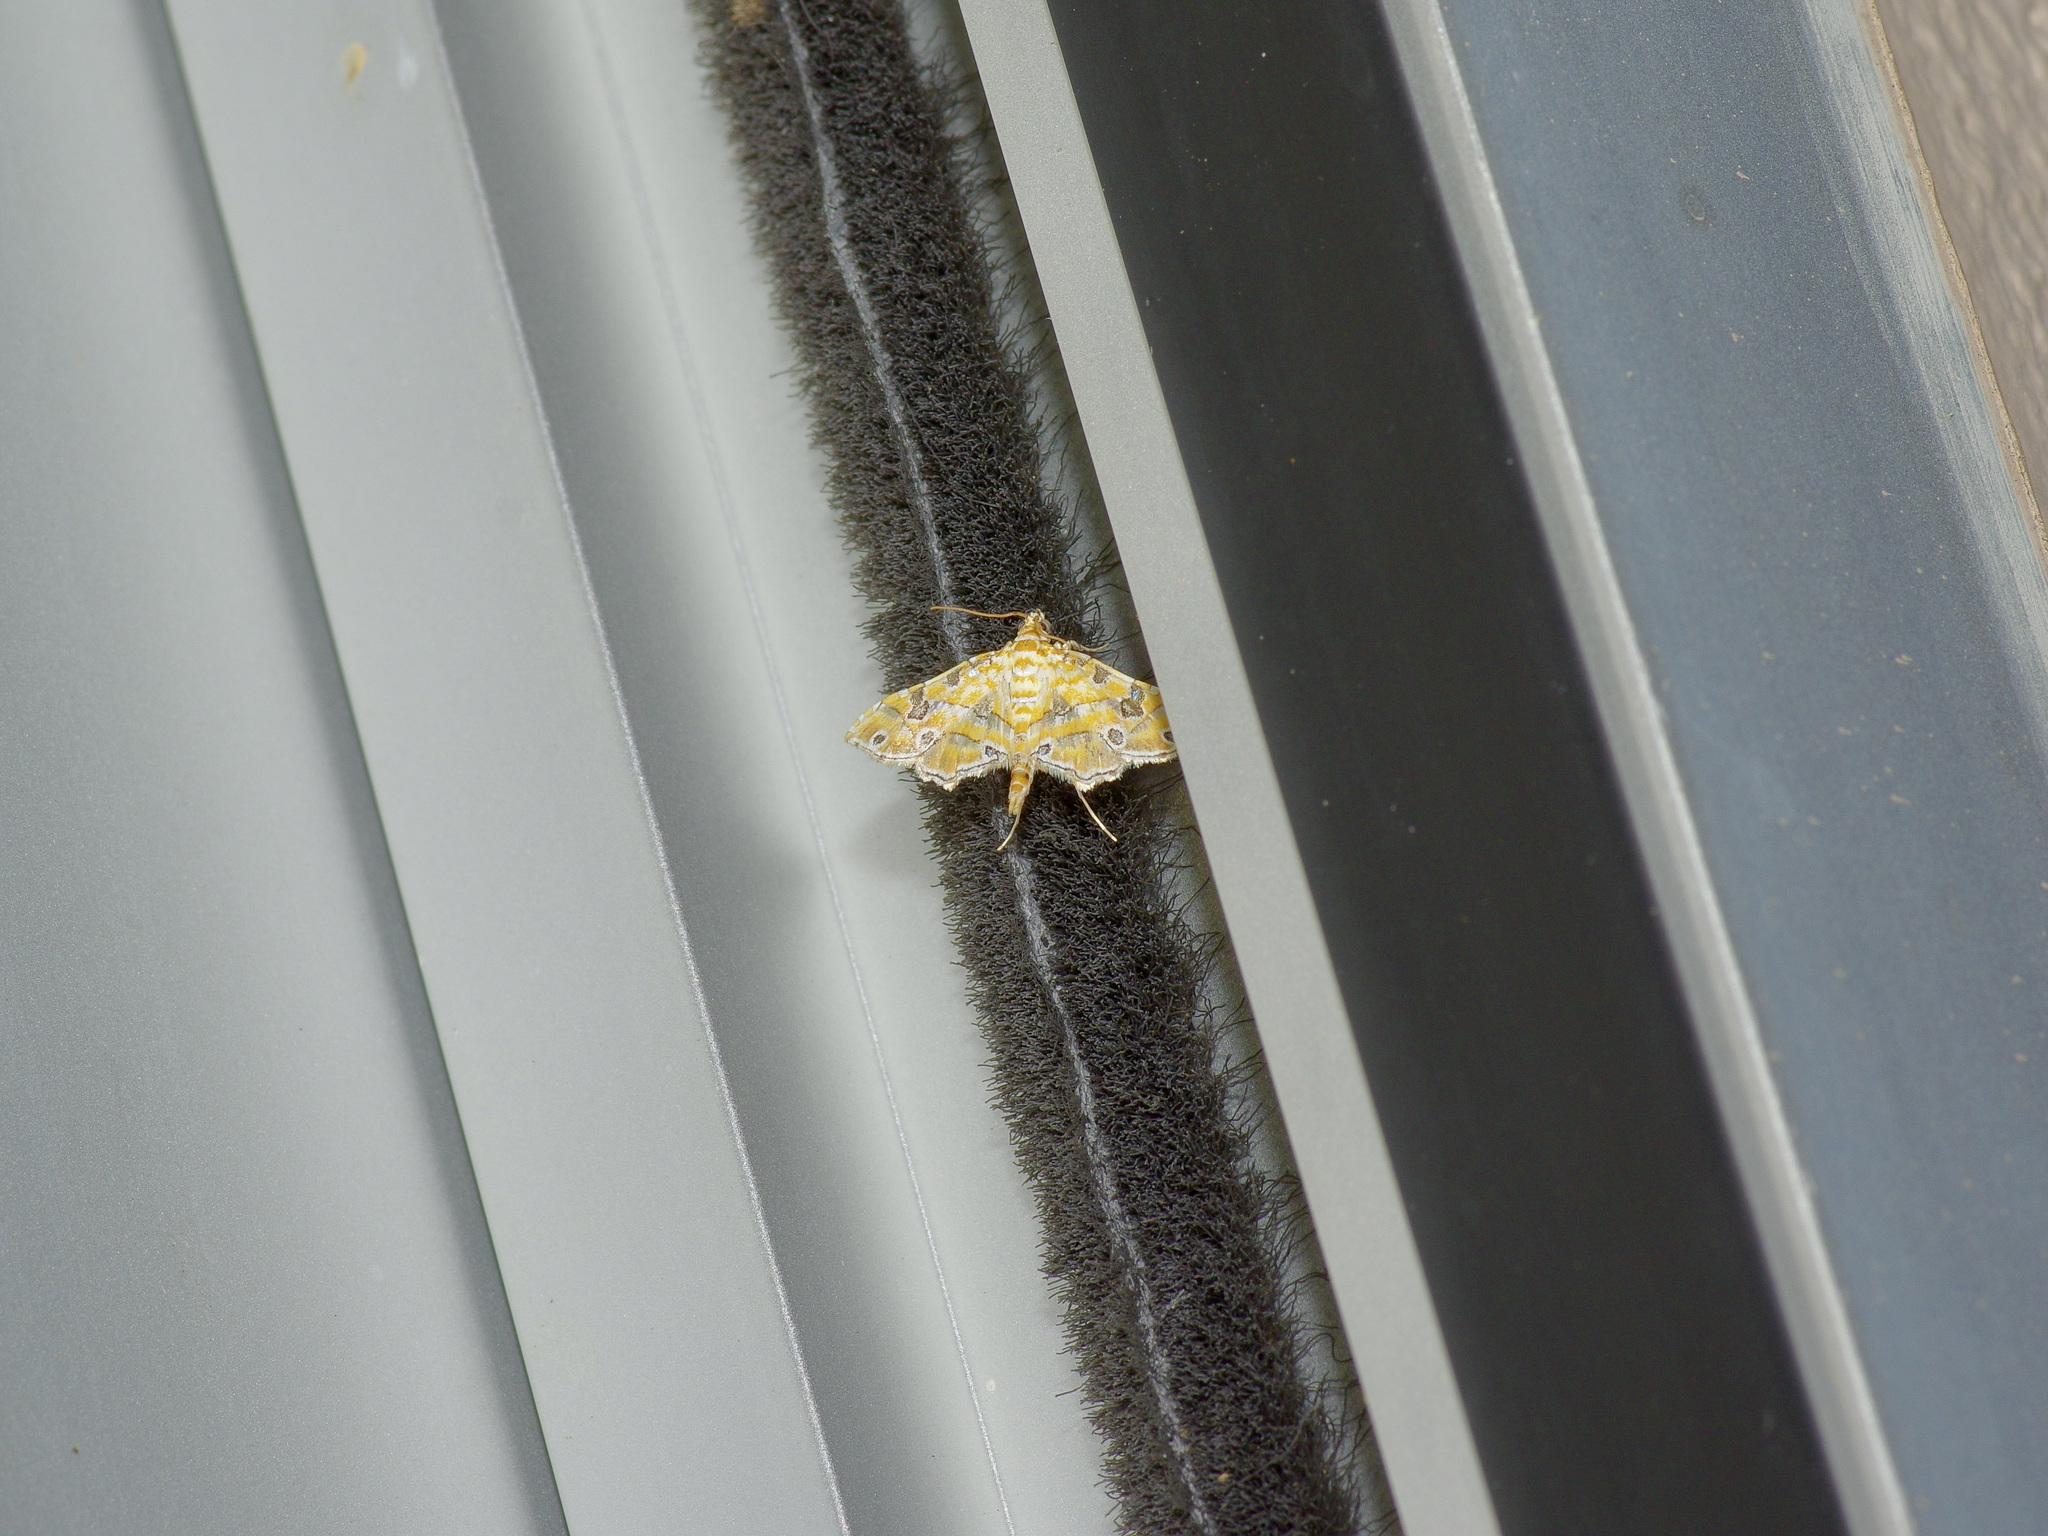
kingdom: Animalia
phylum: Arthropoda
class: Insecta
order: Lepidoptera
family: Crambidae
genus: Ommatospila
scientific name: Ommatospila narcaeusalis
